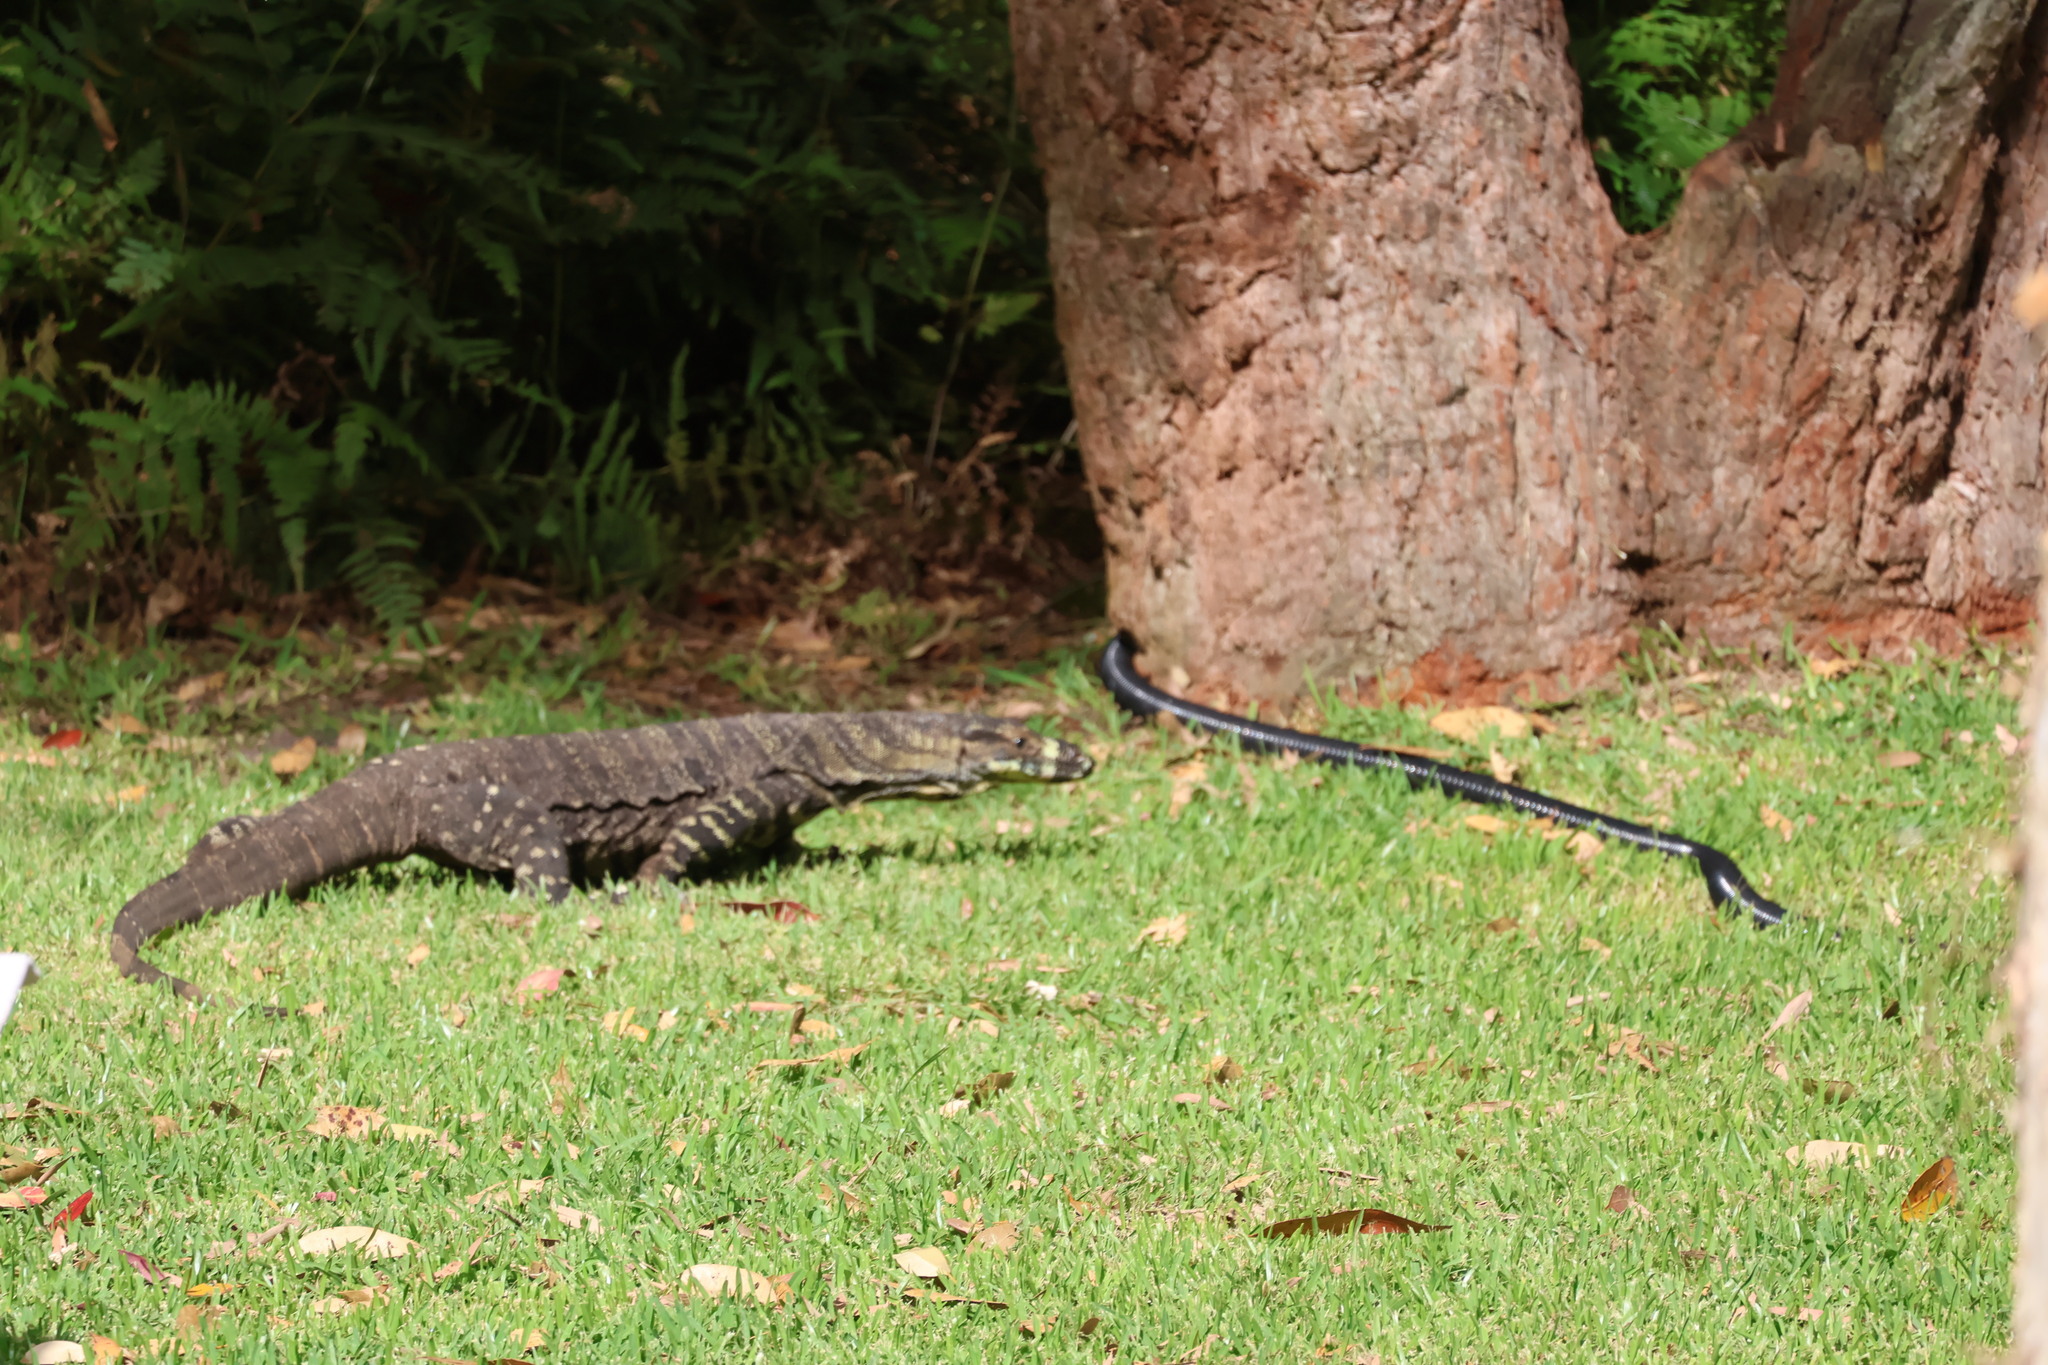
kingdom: Animalia
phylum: Chordata
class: Squamata
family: Varanidae
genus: Varanus
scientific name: Varanus varius
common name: Lace monitor
